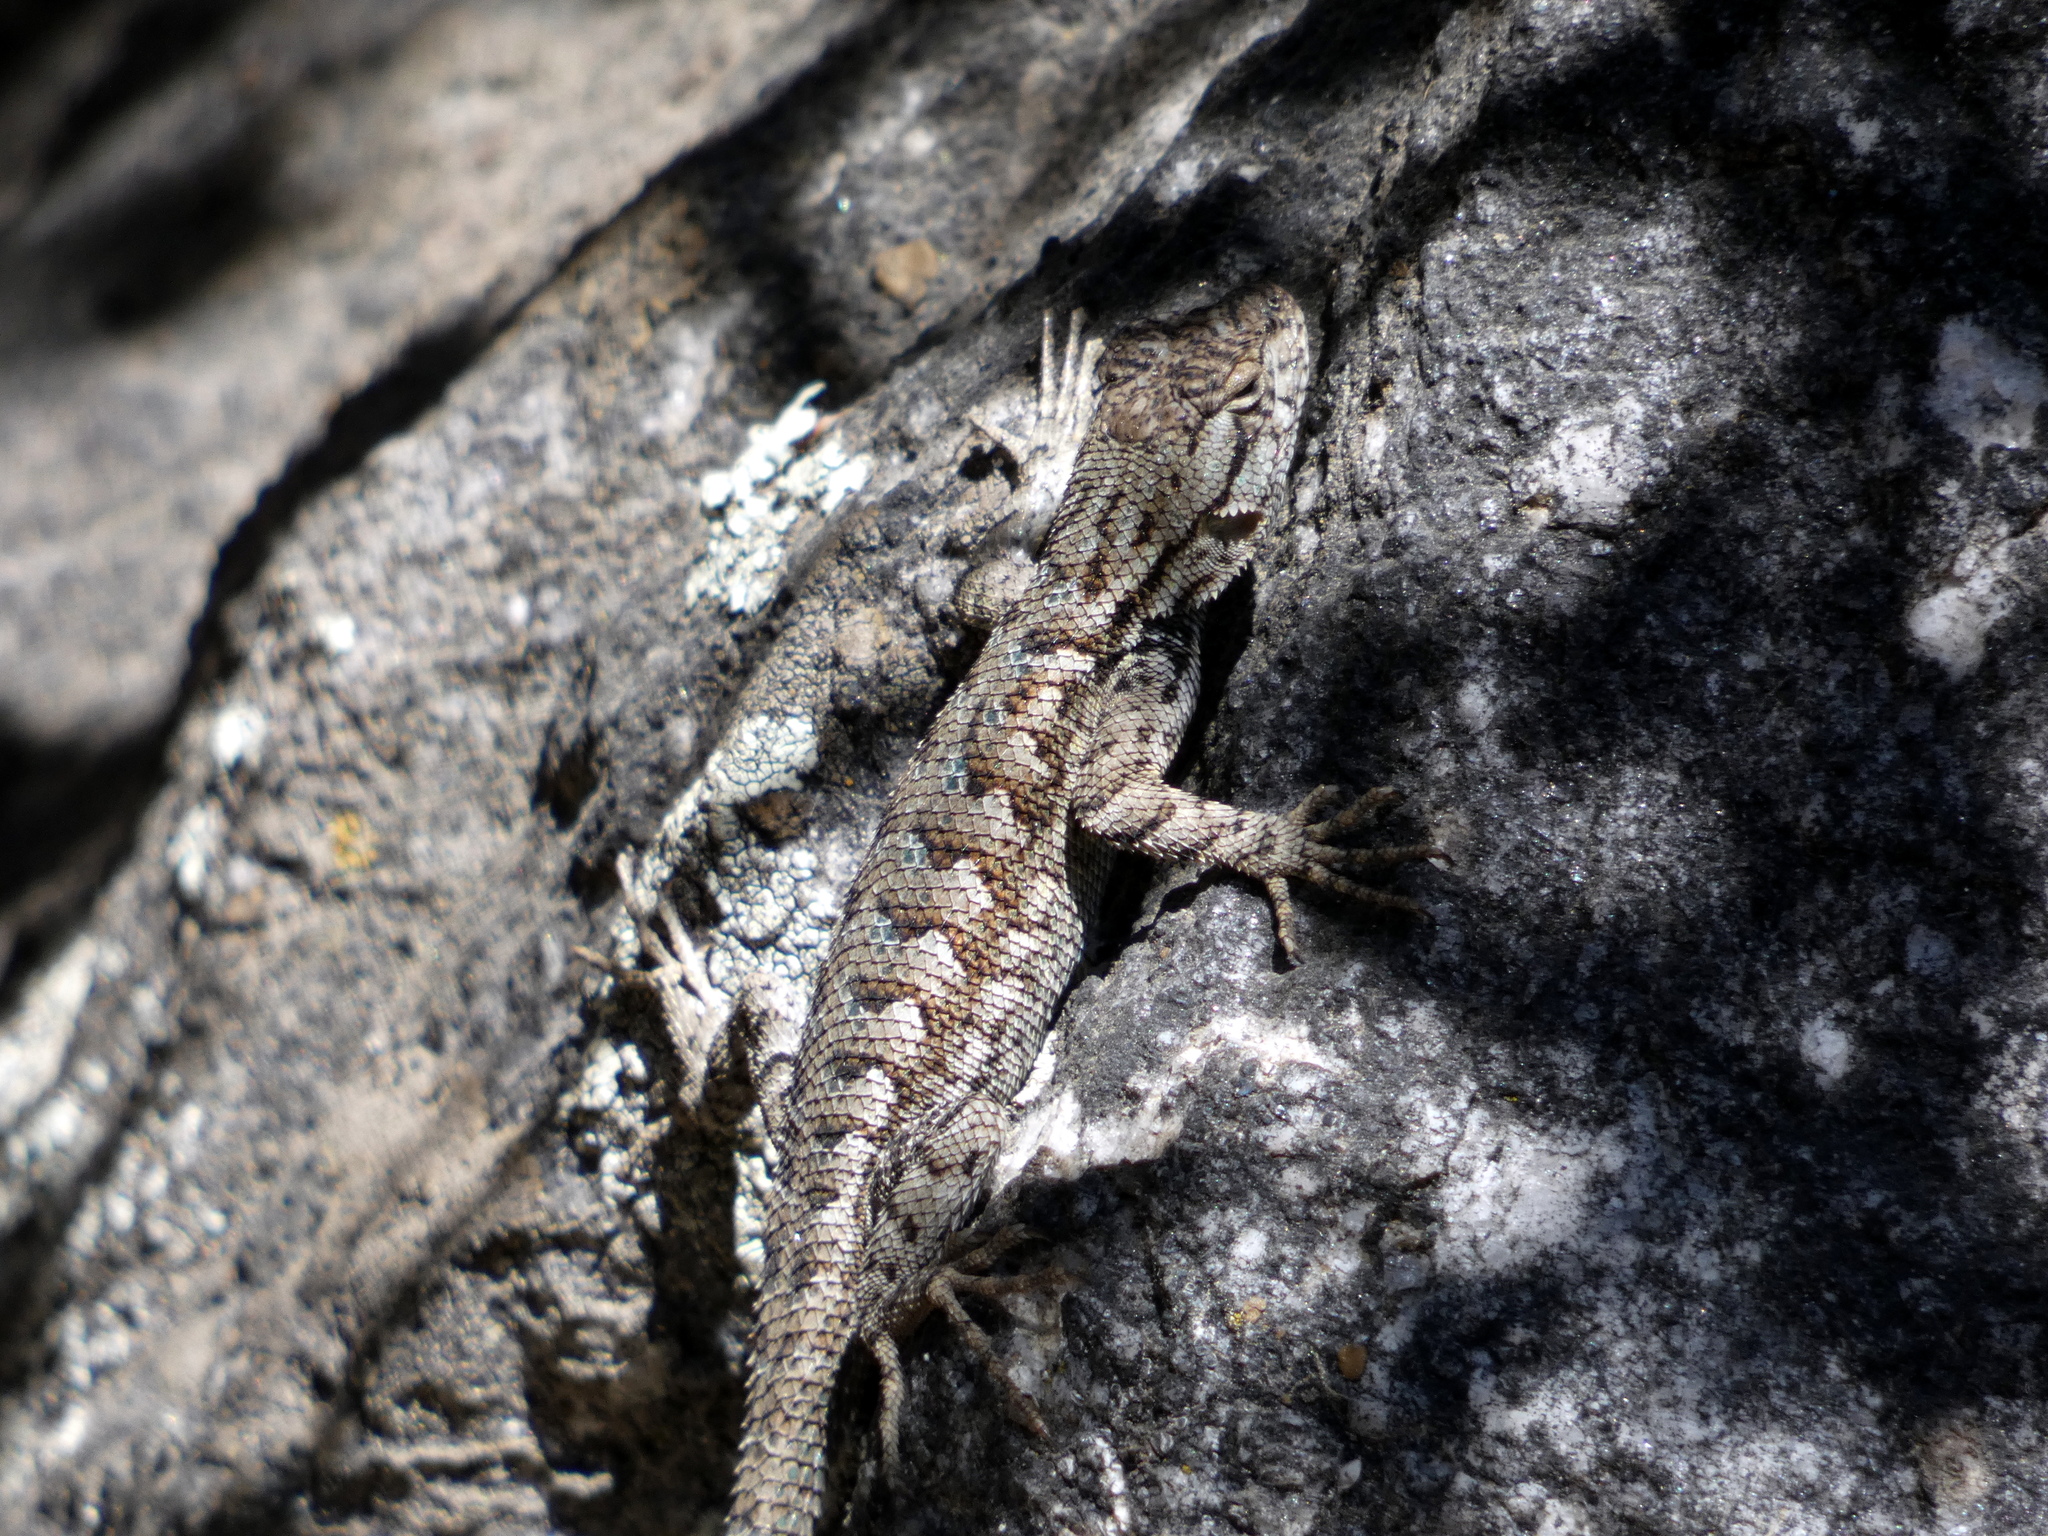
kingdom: Animalia
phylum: Chordata
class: Squamata
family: Phrynosomatidae
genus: Sceloporus
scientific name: Sceloporus occidentalis
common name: Western fence lizard
